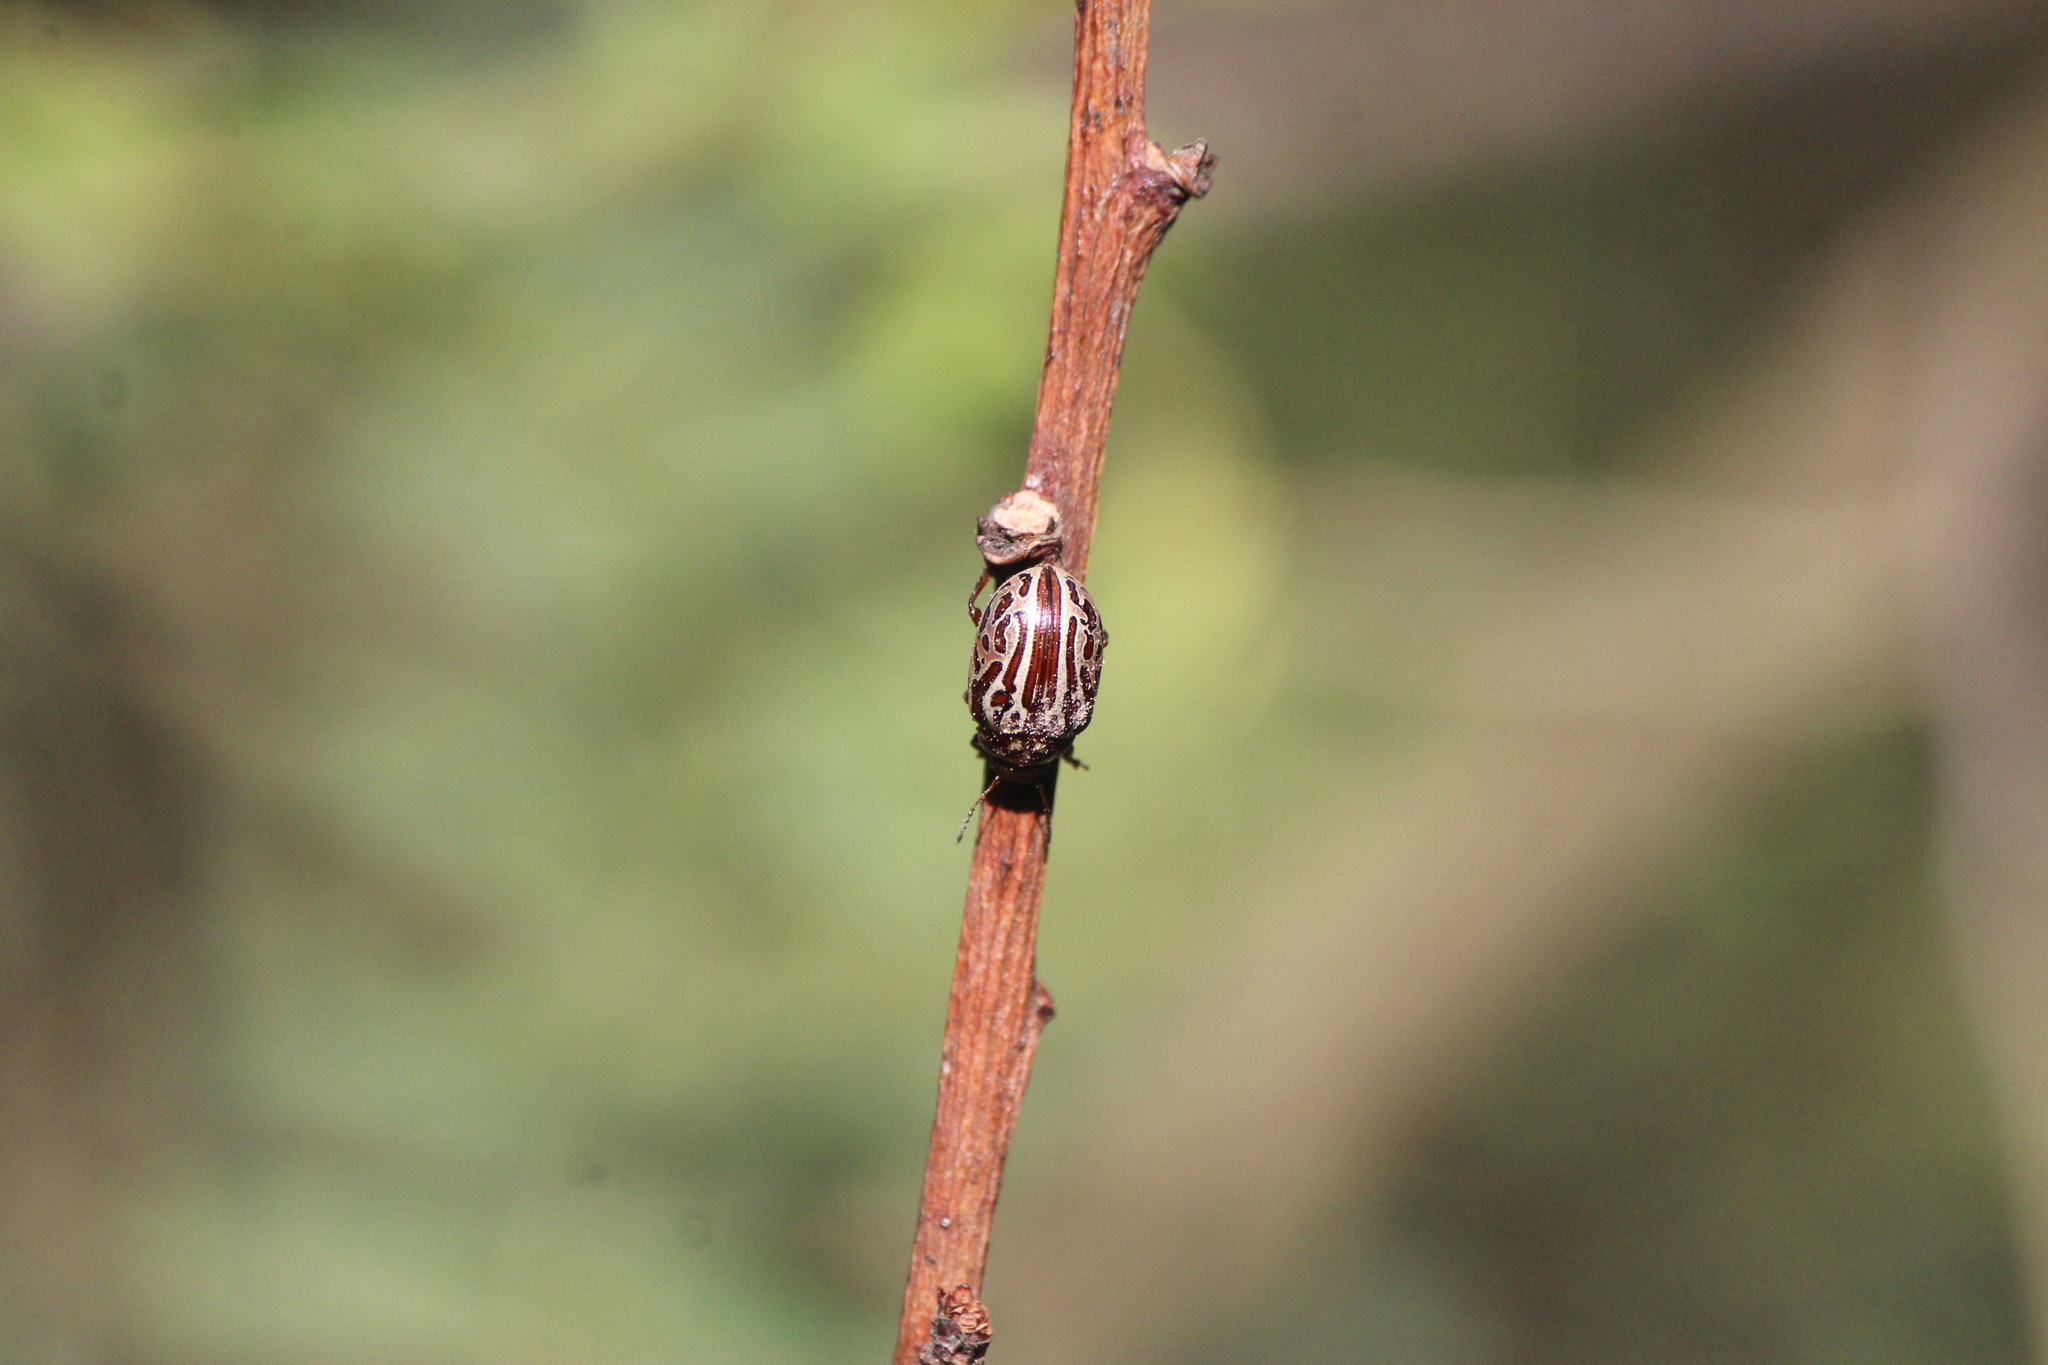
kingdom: Animalia
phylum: Arthropoda
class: Insecta
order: Coleoptera
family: Chrysomelidae
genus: Calligrapha
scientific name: Calligrapha gyllenhali
